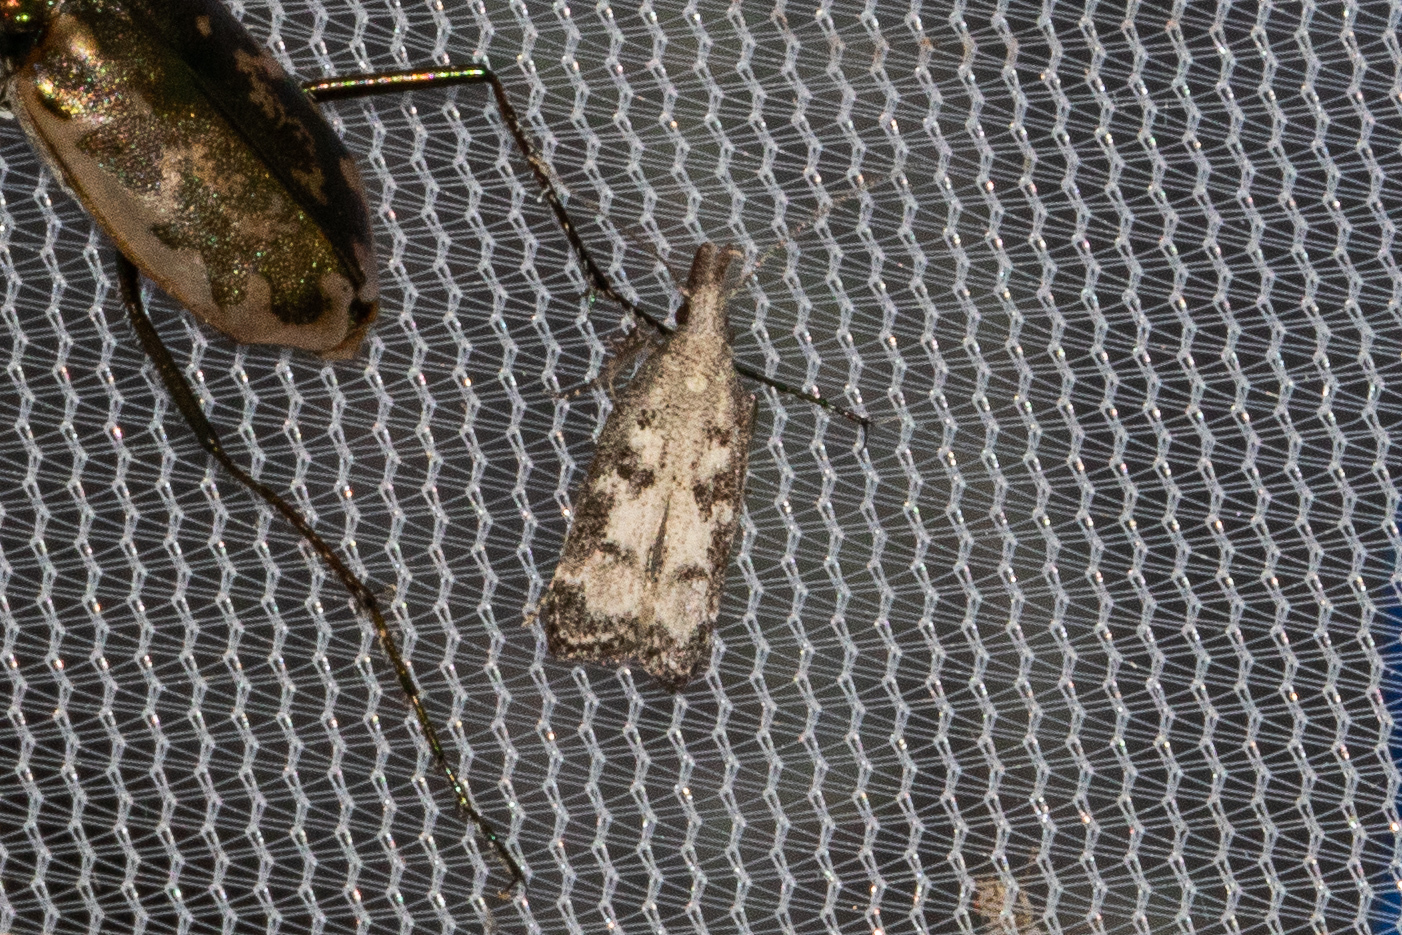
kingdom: Animalia
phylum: Arthropoda
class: Insecta
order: Lepidoptera
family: Gelechiidae
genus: Dichomeris
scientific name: Dichomeris inversella
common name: Inverse dichomeris moth
